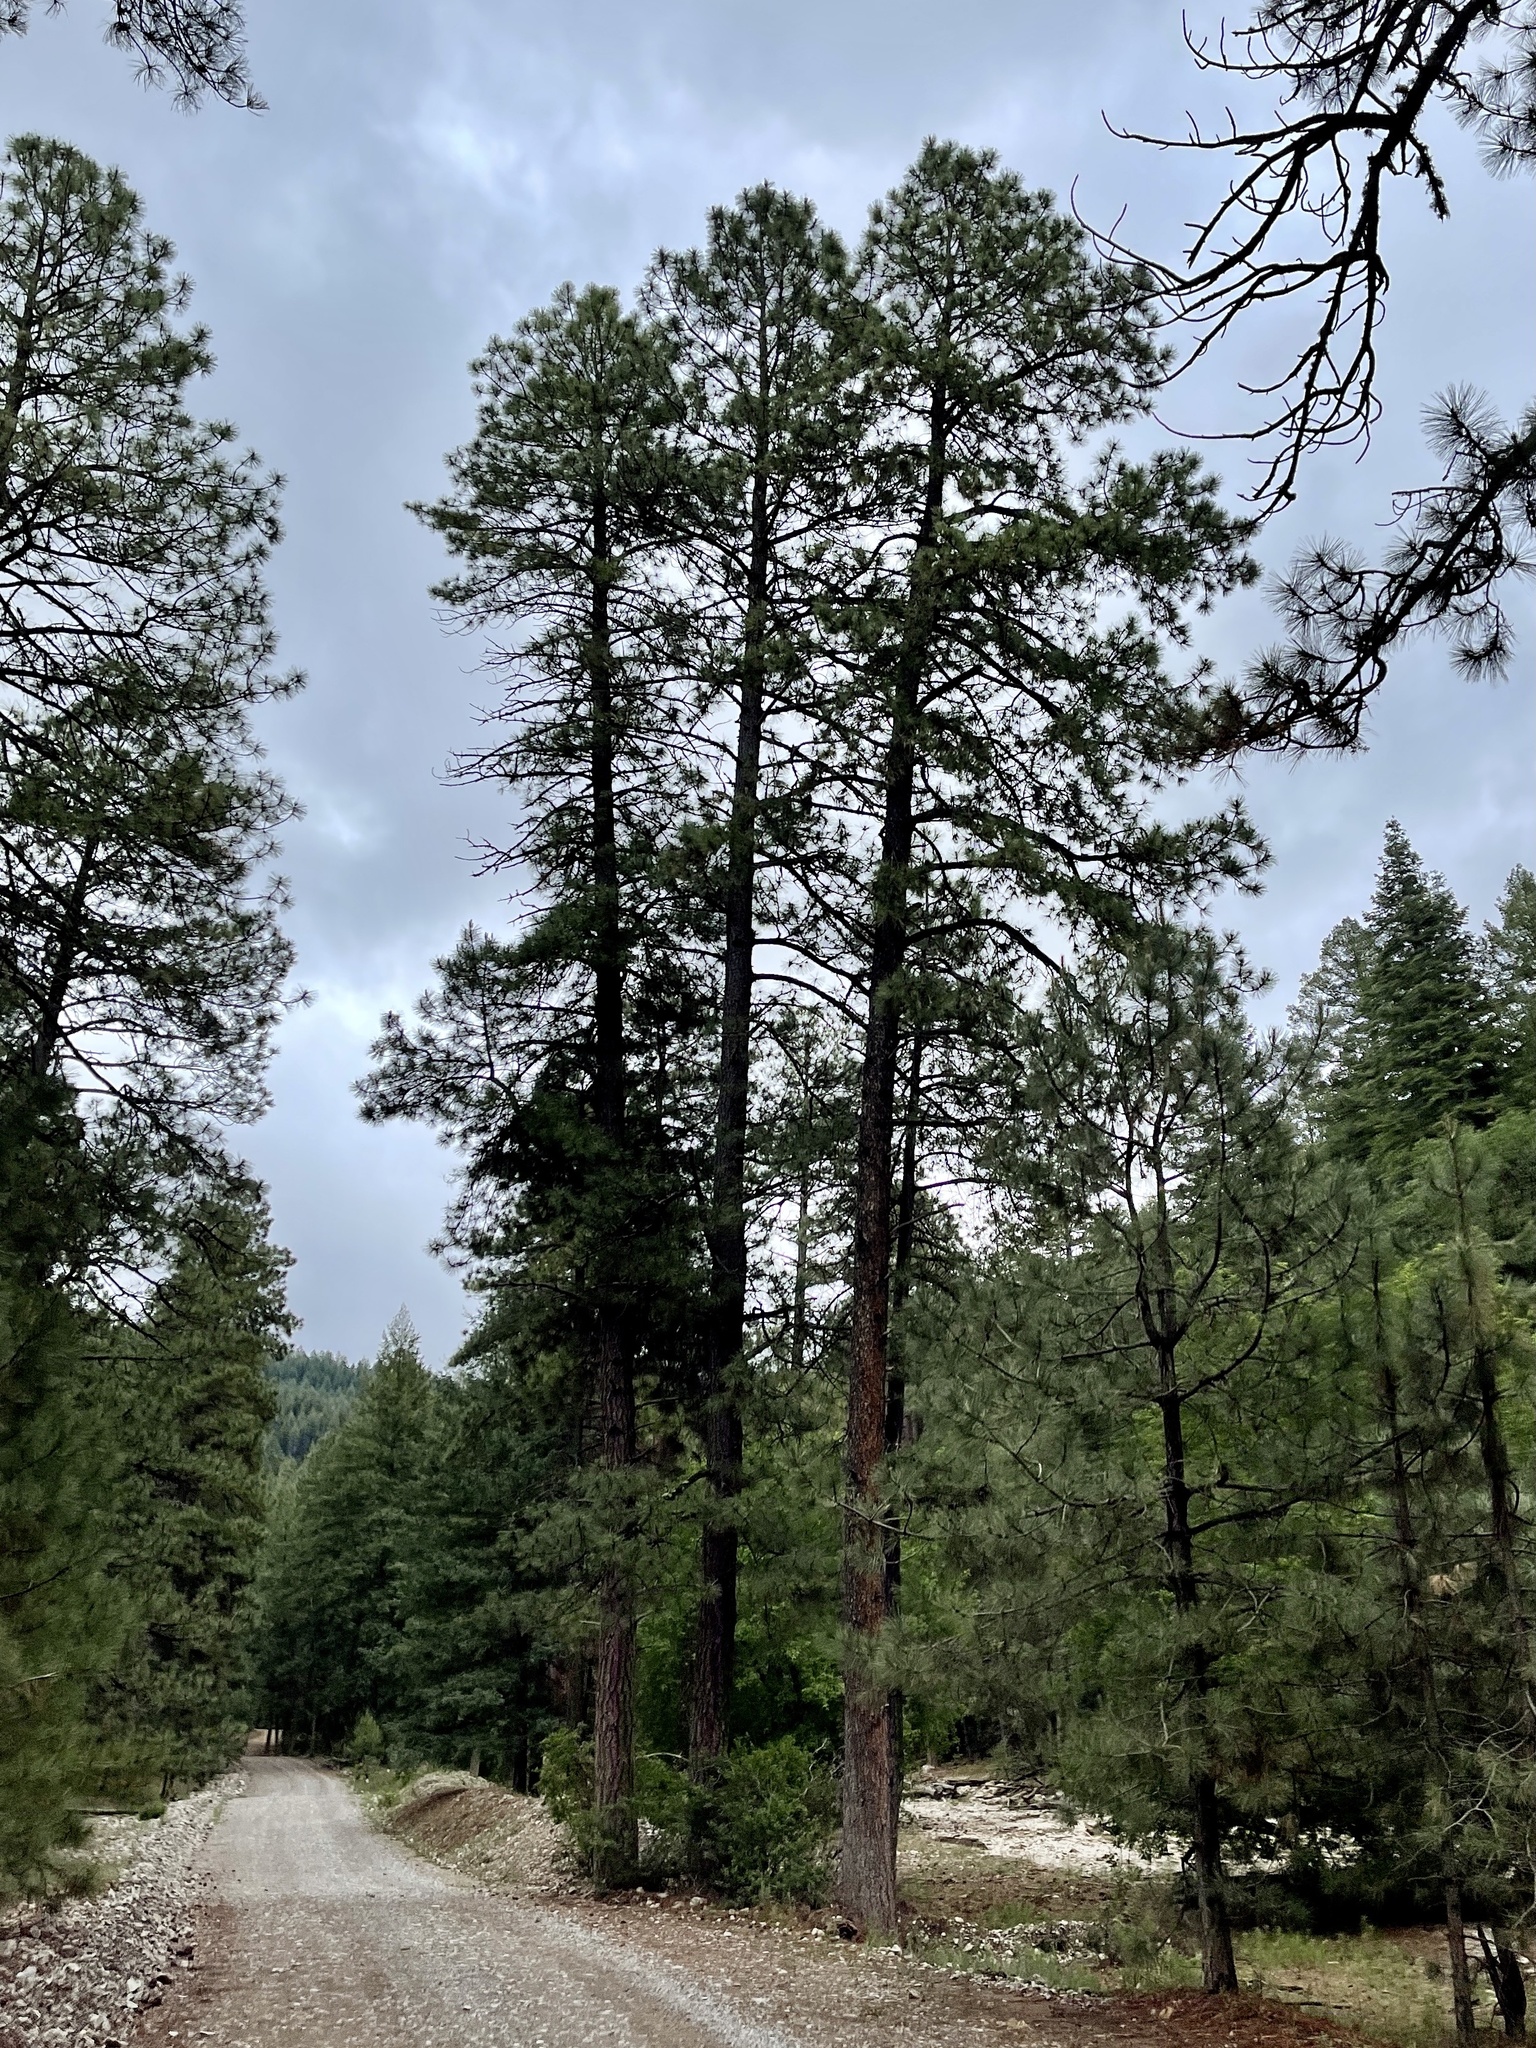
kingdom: Plantae
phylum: Tracheophyta
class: Pinopsida
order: Pinales
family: Pinaceae
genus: Pinus
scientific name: Pinus ponderosa
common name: Western yellow-pine
